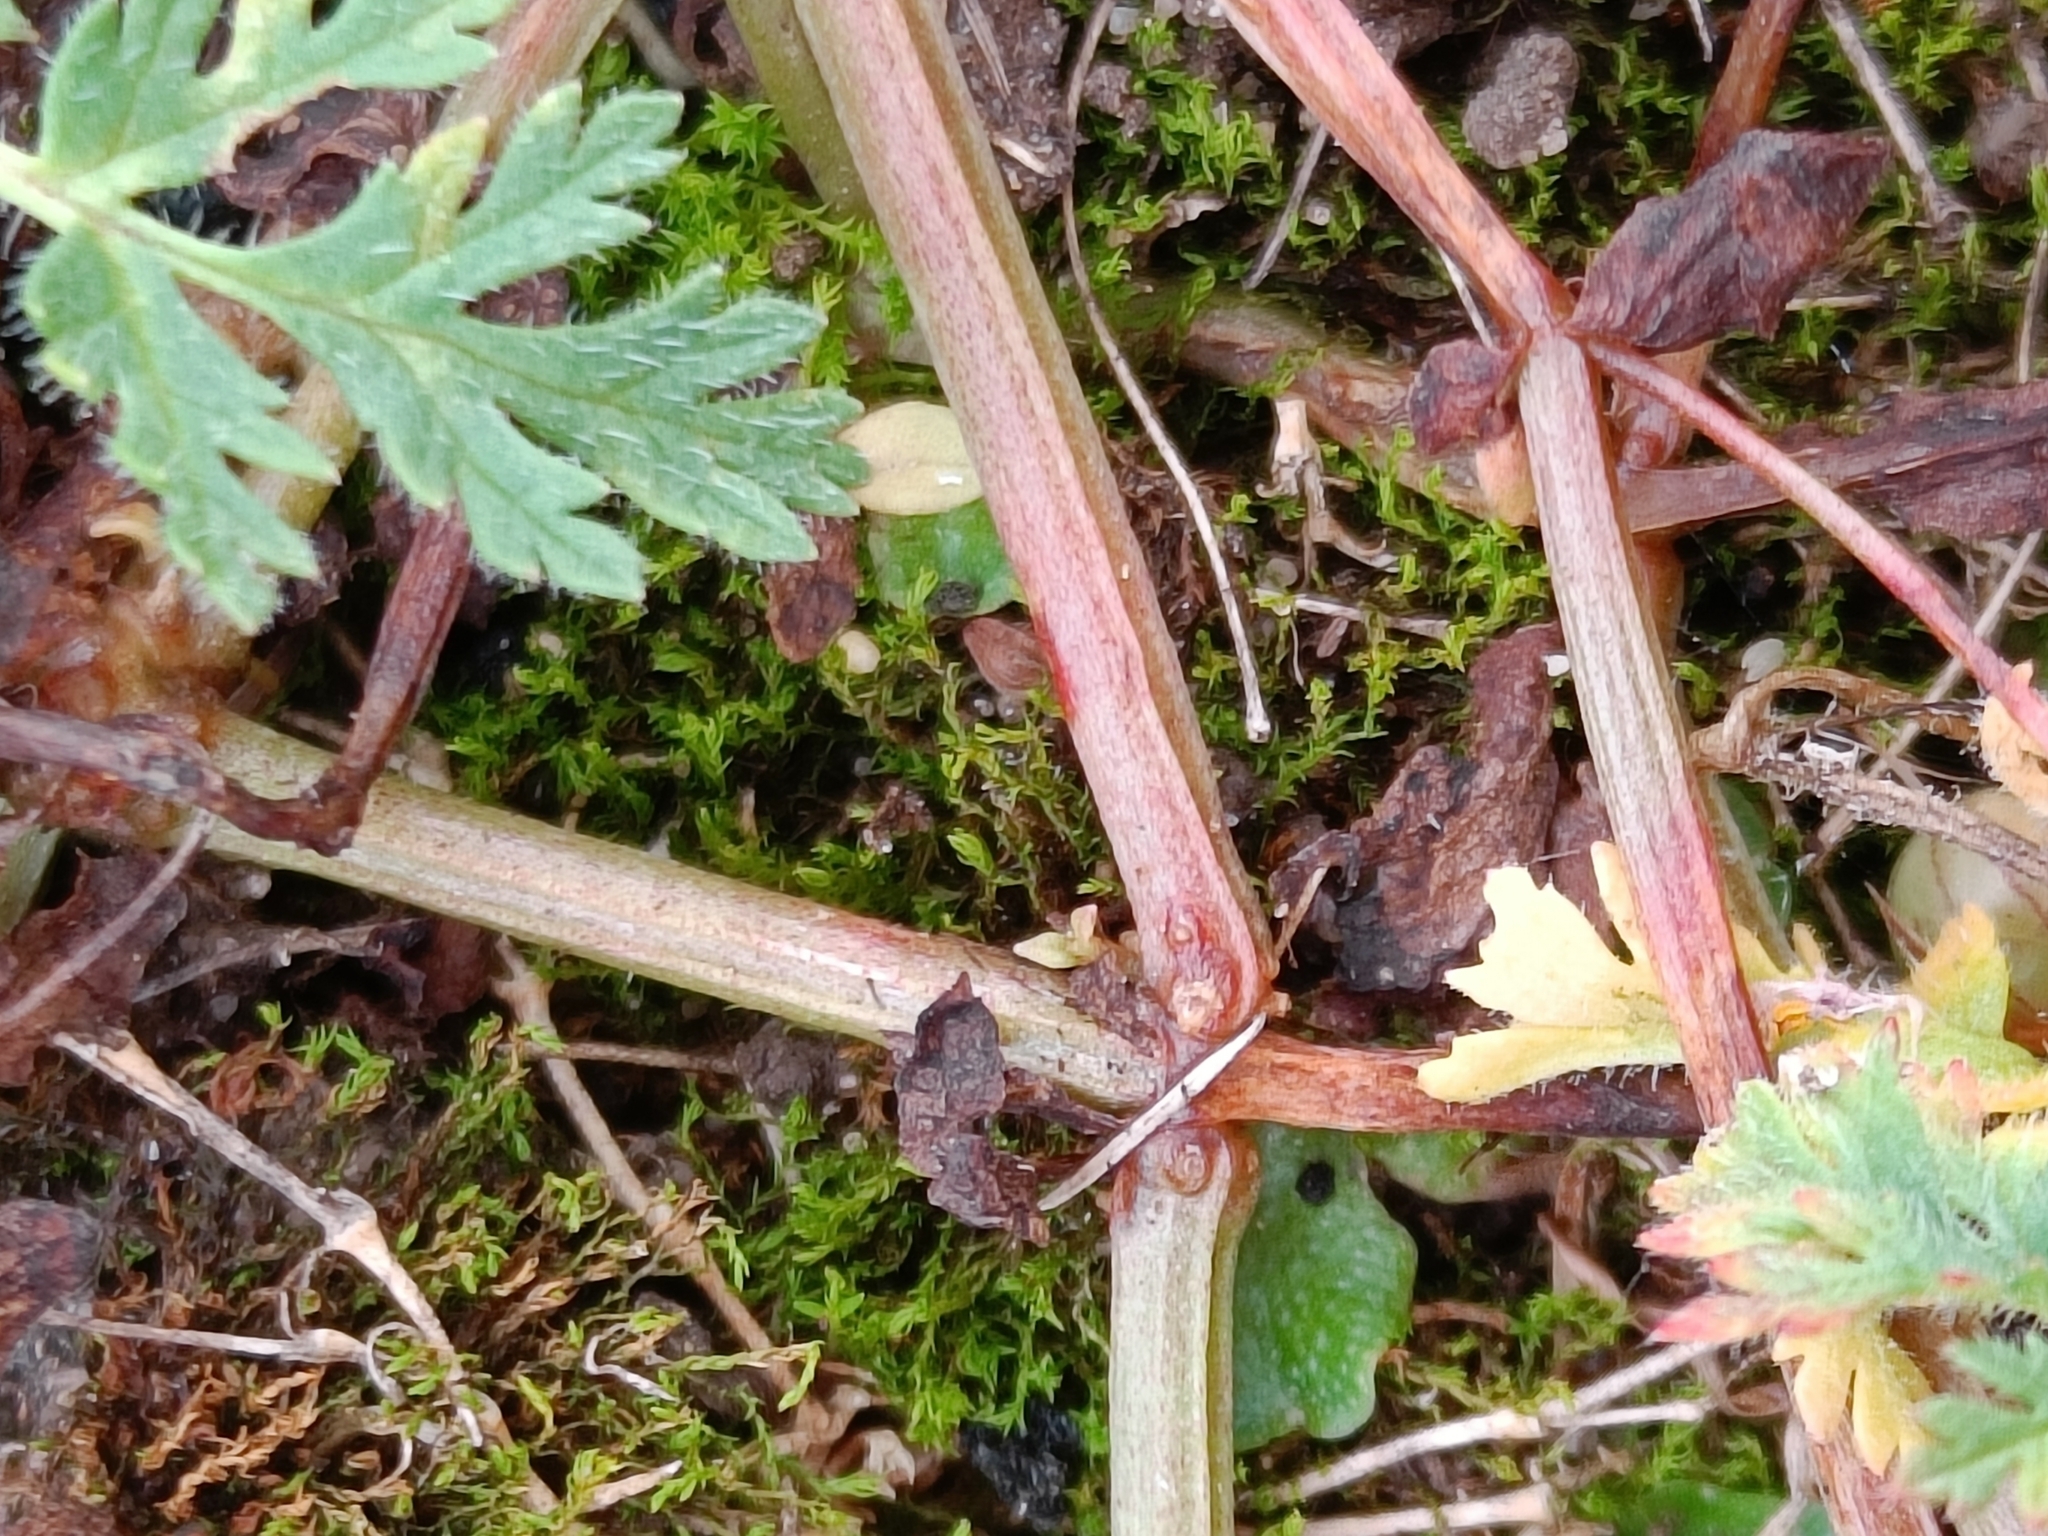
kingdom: Plantae
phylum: Tracheophyta
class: Magnoliopsida
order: Ericales
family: Primulaceae
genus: Lysimachia
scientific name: Lysimachia arvensis
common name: Scarlet pimpernel
